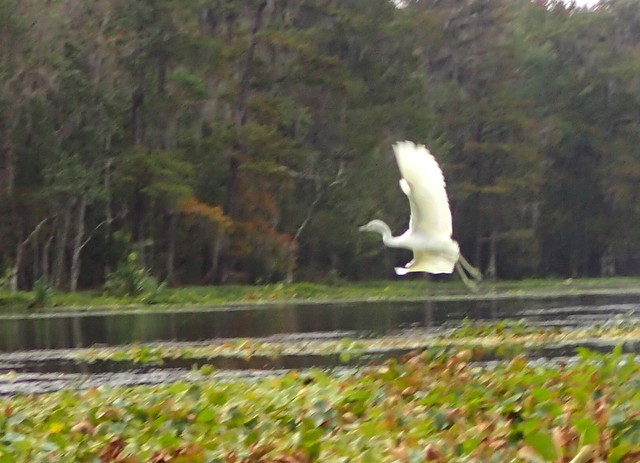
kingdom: Animalia
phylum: Chordata
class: Aves
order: Pelecaniformes
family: Ardeidae
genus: Egretta
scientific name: Egretta caerulea
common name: Little blue heron
